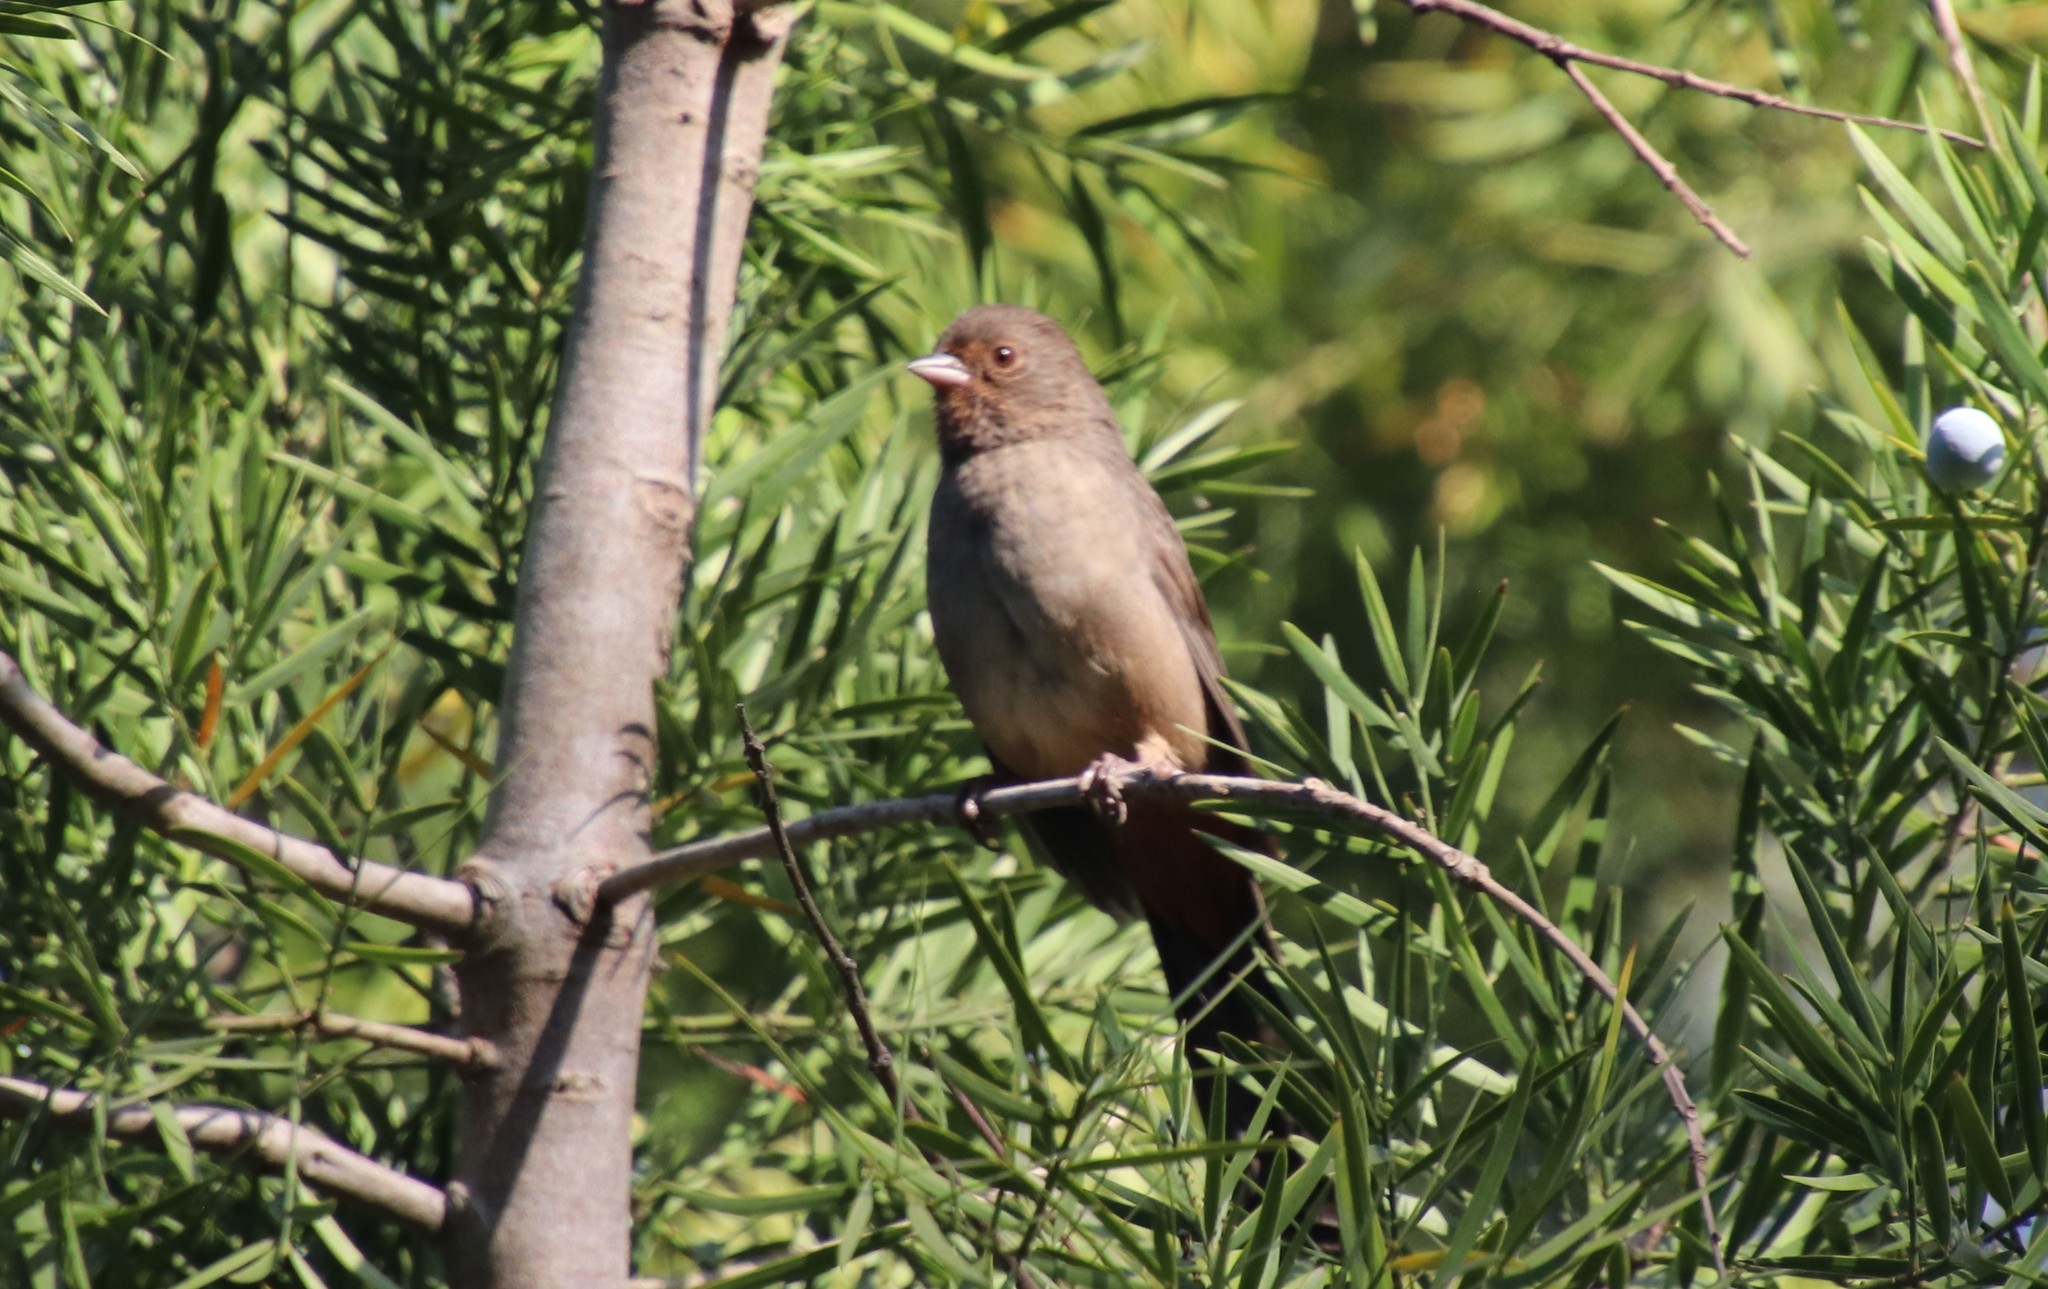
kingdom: Animalia
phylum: Chordata
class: Aves
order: Passeriformes
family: Passerellidae
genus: Melozone
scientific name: Melozone crissalis
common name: California towhee
